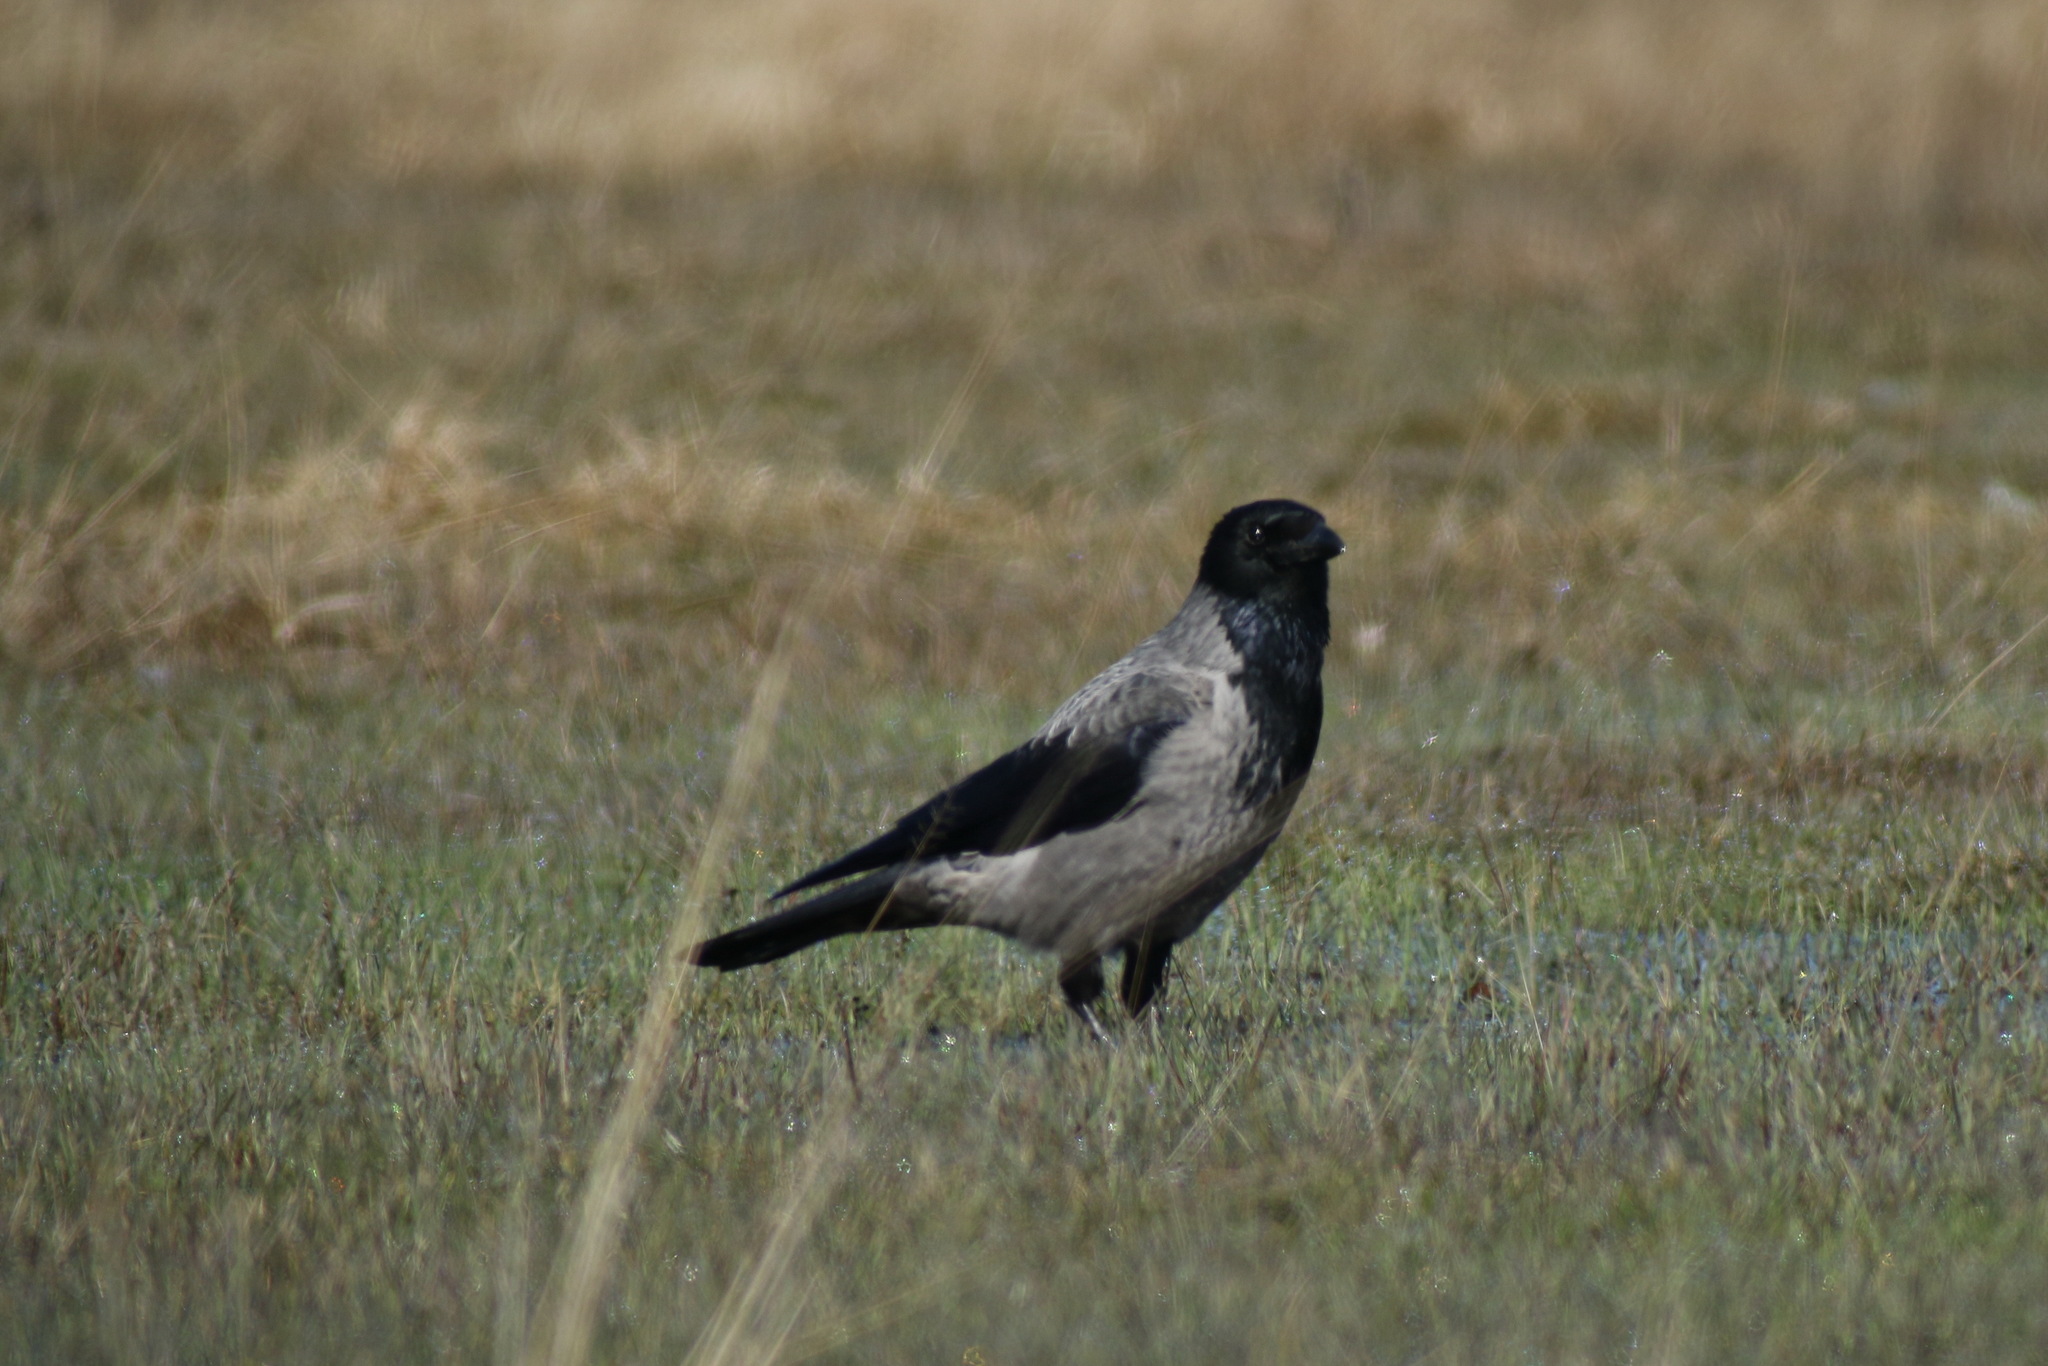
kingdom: Animalia
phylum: Chordata
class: Aves
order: Passeriformes
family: Corvidae
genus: Corvus
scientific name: Corvus cornix
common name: Hooded crow
